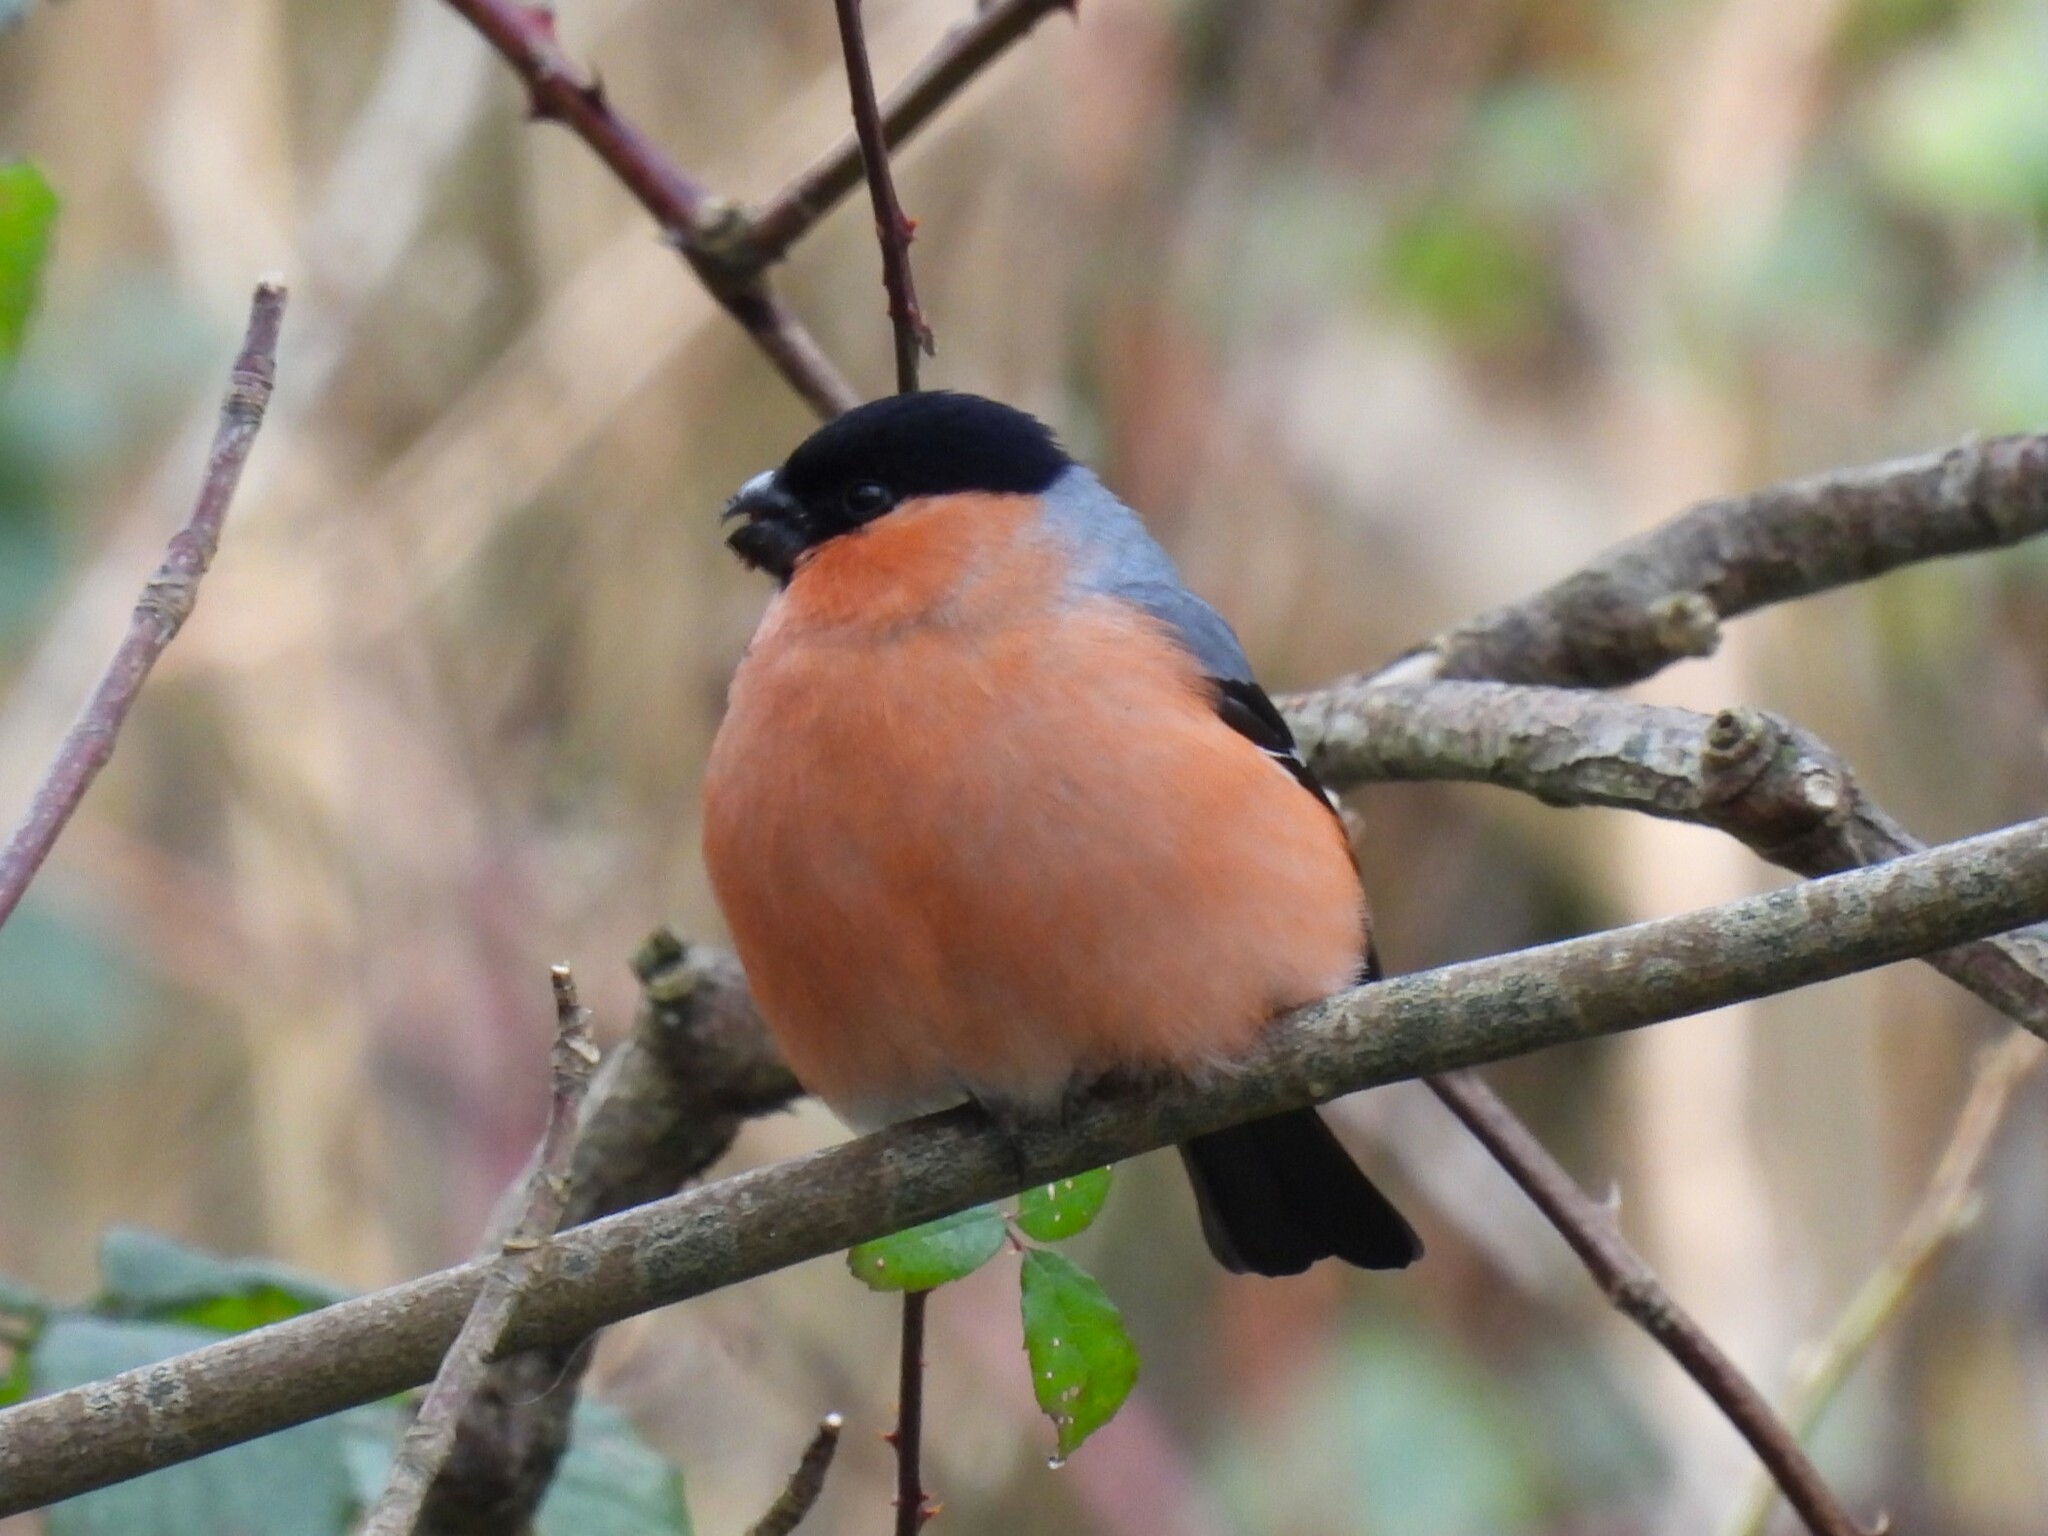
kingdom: Animalia
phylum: Chordata
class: Aves
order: Passeriformes
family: Fringillidae
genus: Pyrrhula
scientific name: Pyrrhula pyrrhula
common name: Eurasian bullfinch
